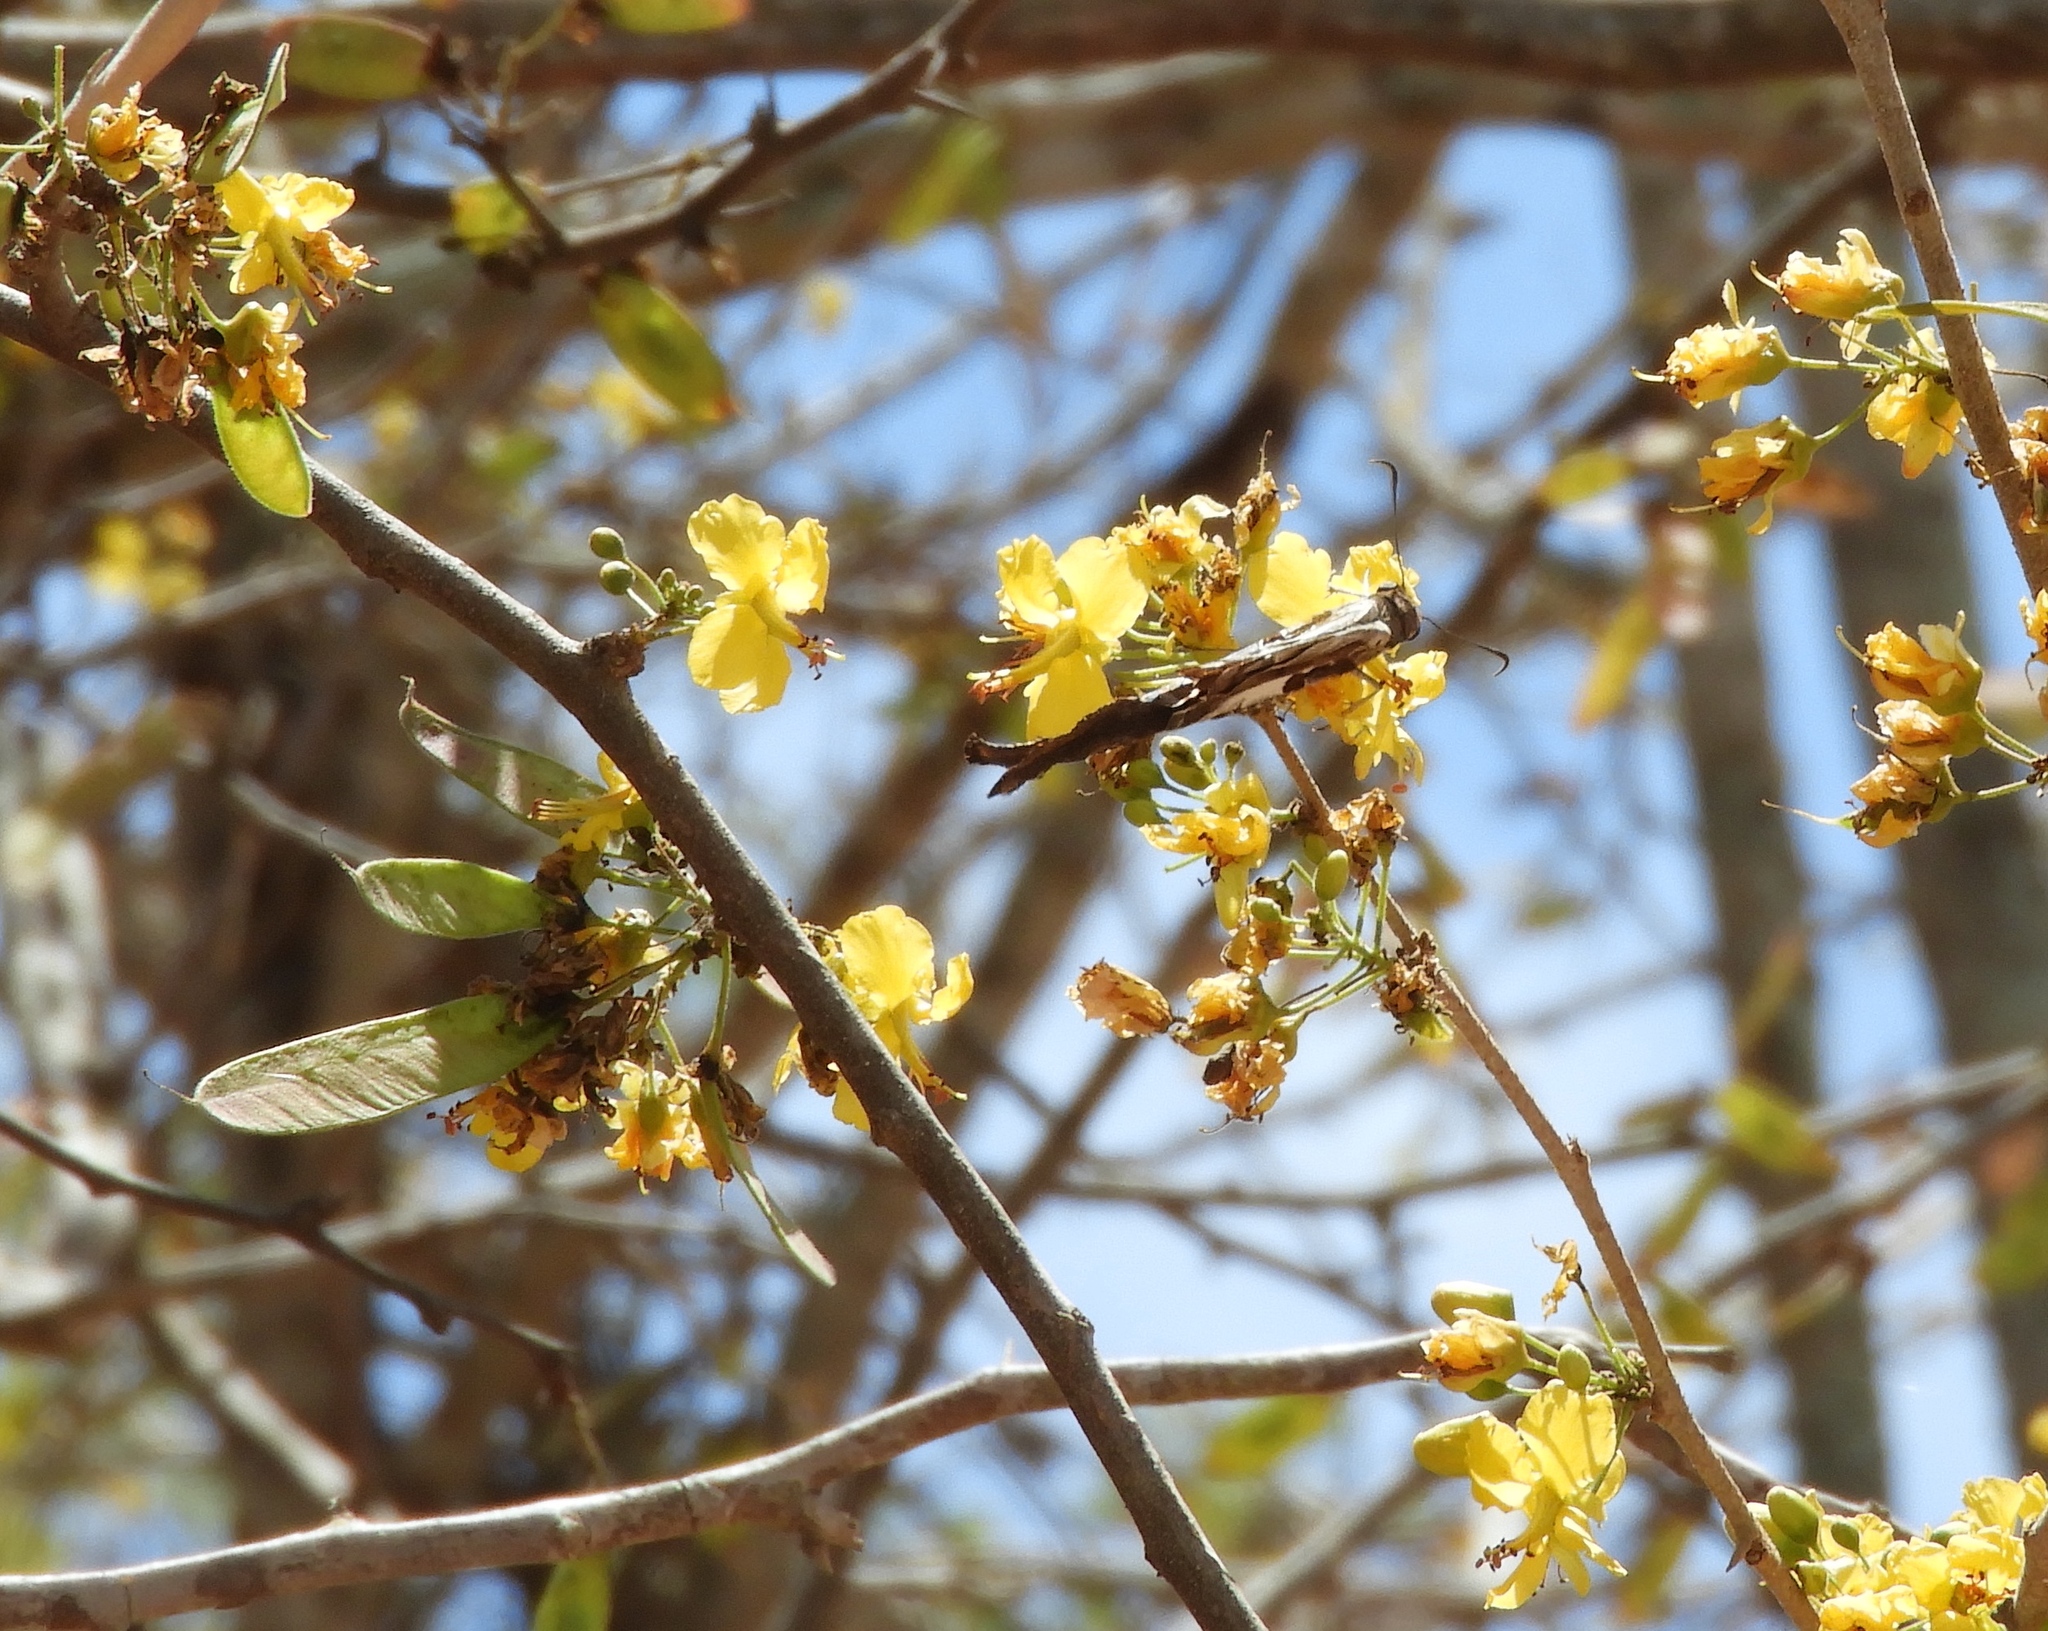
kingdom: Plantae
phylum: Tracheophyta
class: Magnoliopsida
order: Fabales
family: Fabaceae
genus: Haematoxylum
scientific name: Haematoxylum brasiletto
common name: Peachwood
